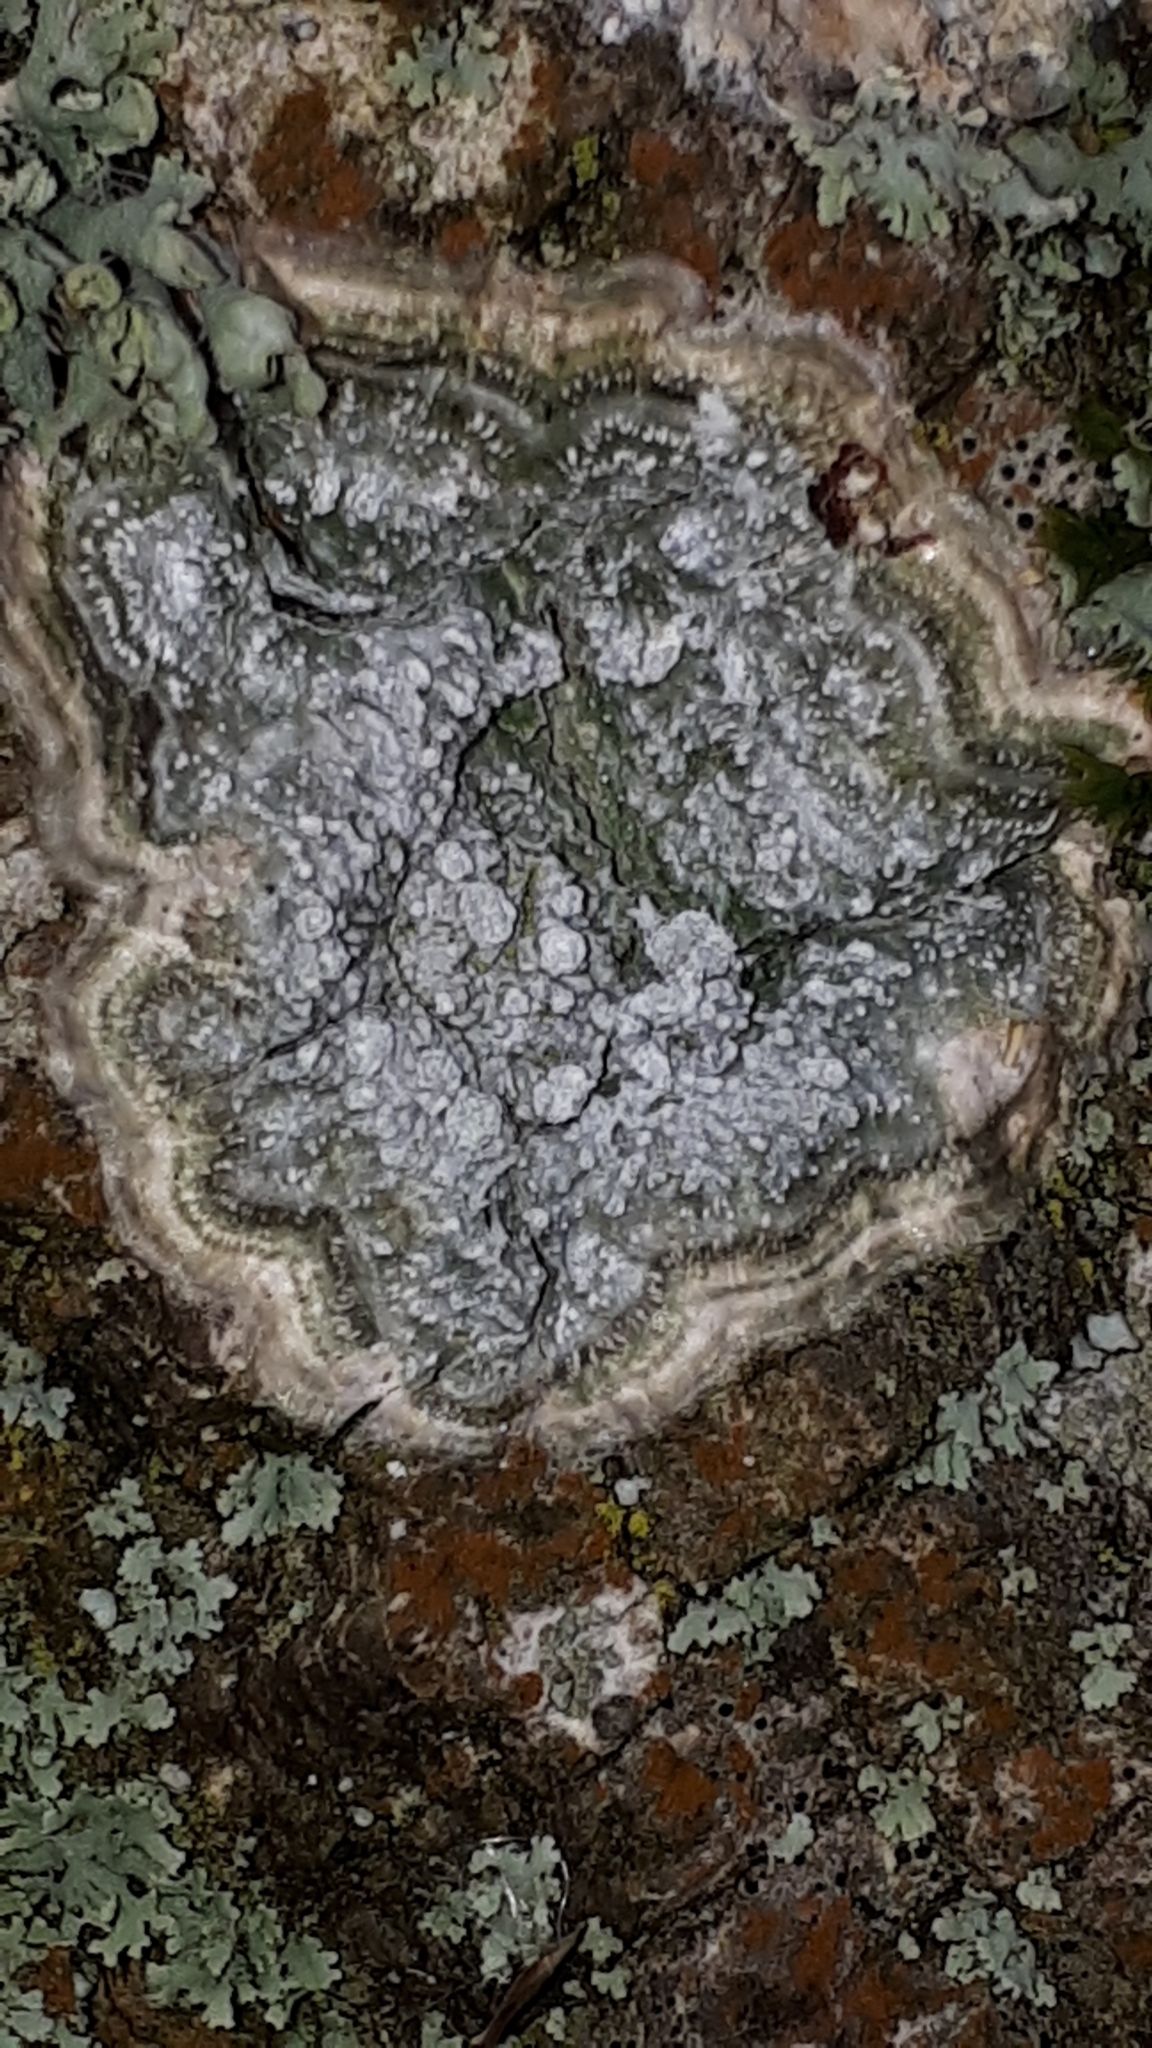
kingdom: Fungi
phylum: Ascomycota
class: Lecanoromycetes
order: Pertusariales
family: Pertusariaceae
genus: Lepra
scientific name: Lepra albescens
